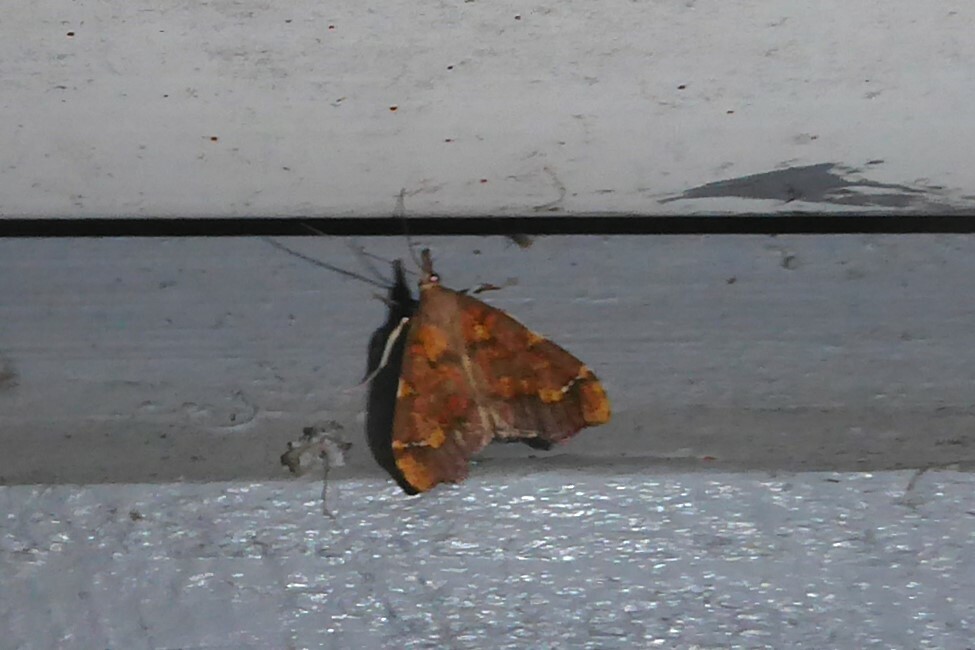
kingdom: Animalia
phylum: Arthropoda
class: Insecta
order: Lepidoptera
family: Crambidae
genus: Deana
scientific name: Deana hybreasalis
